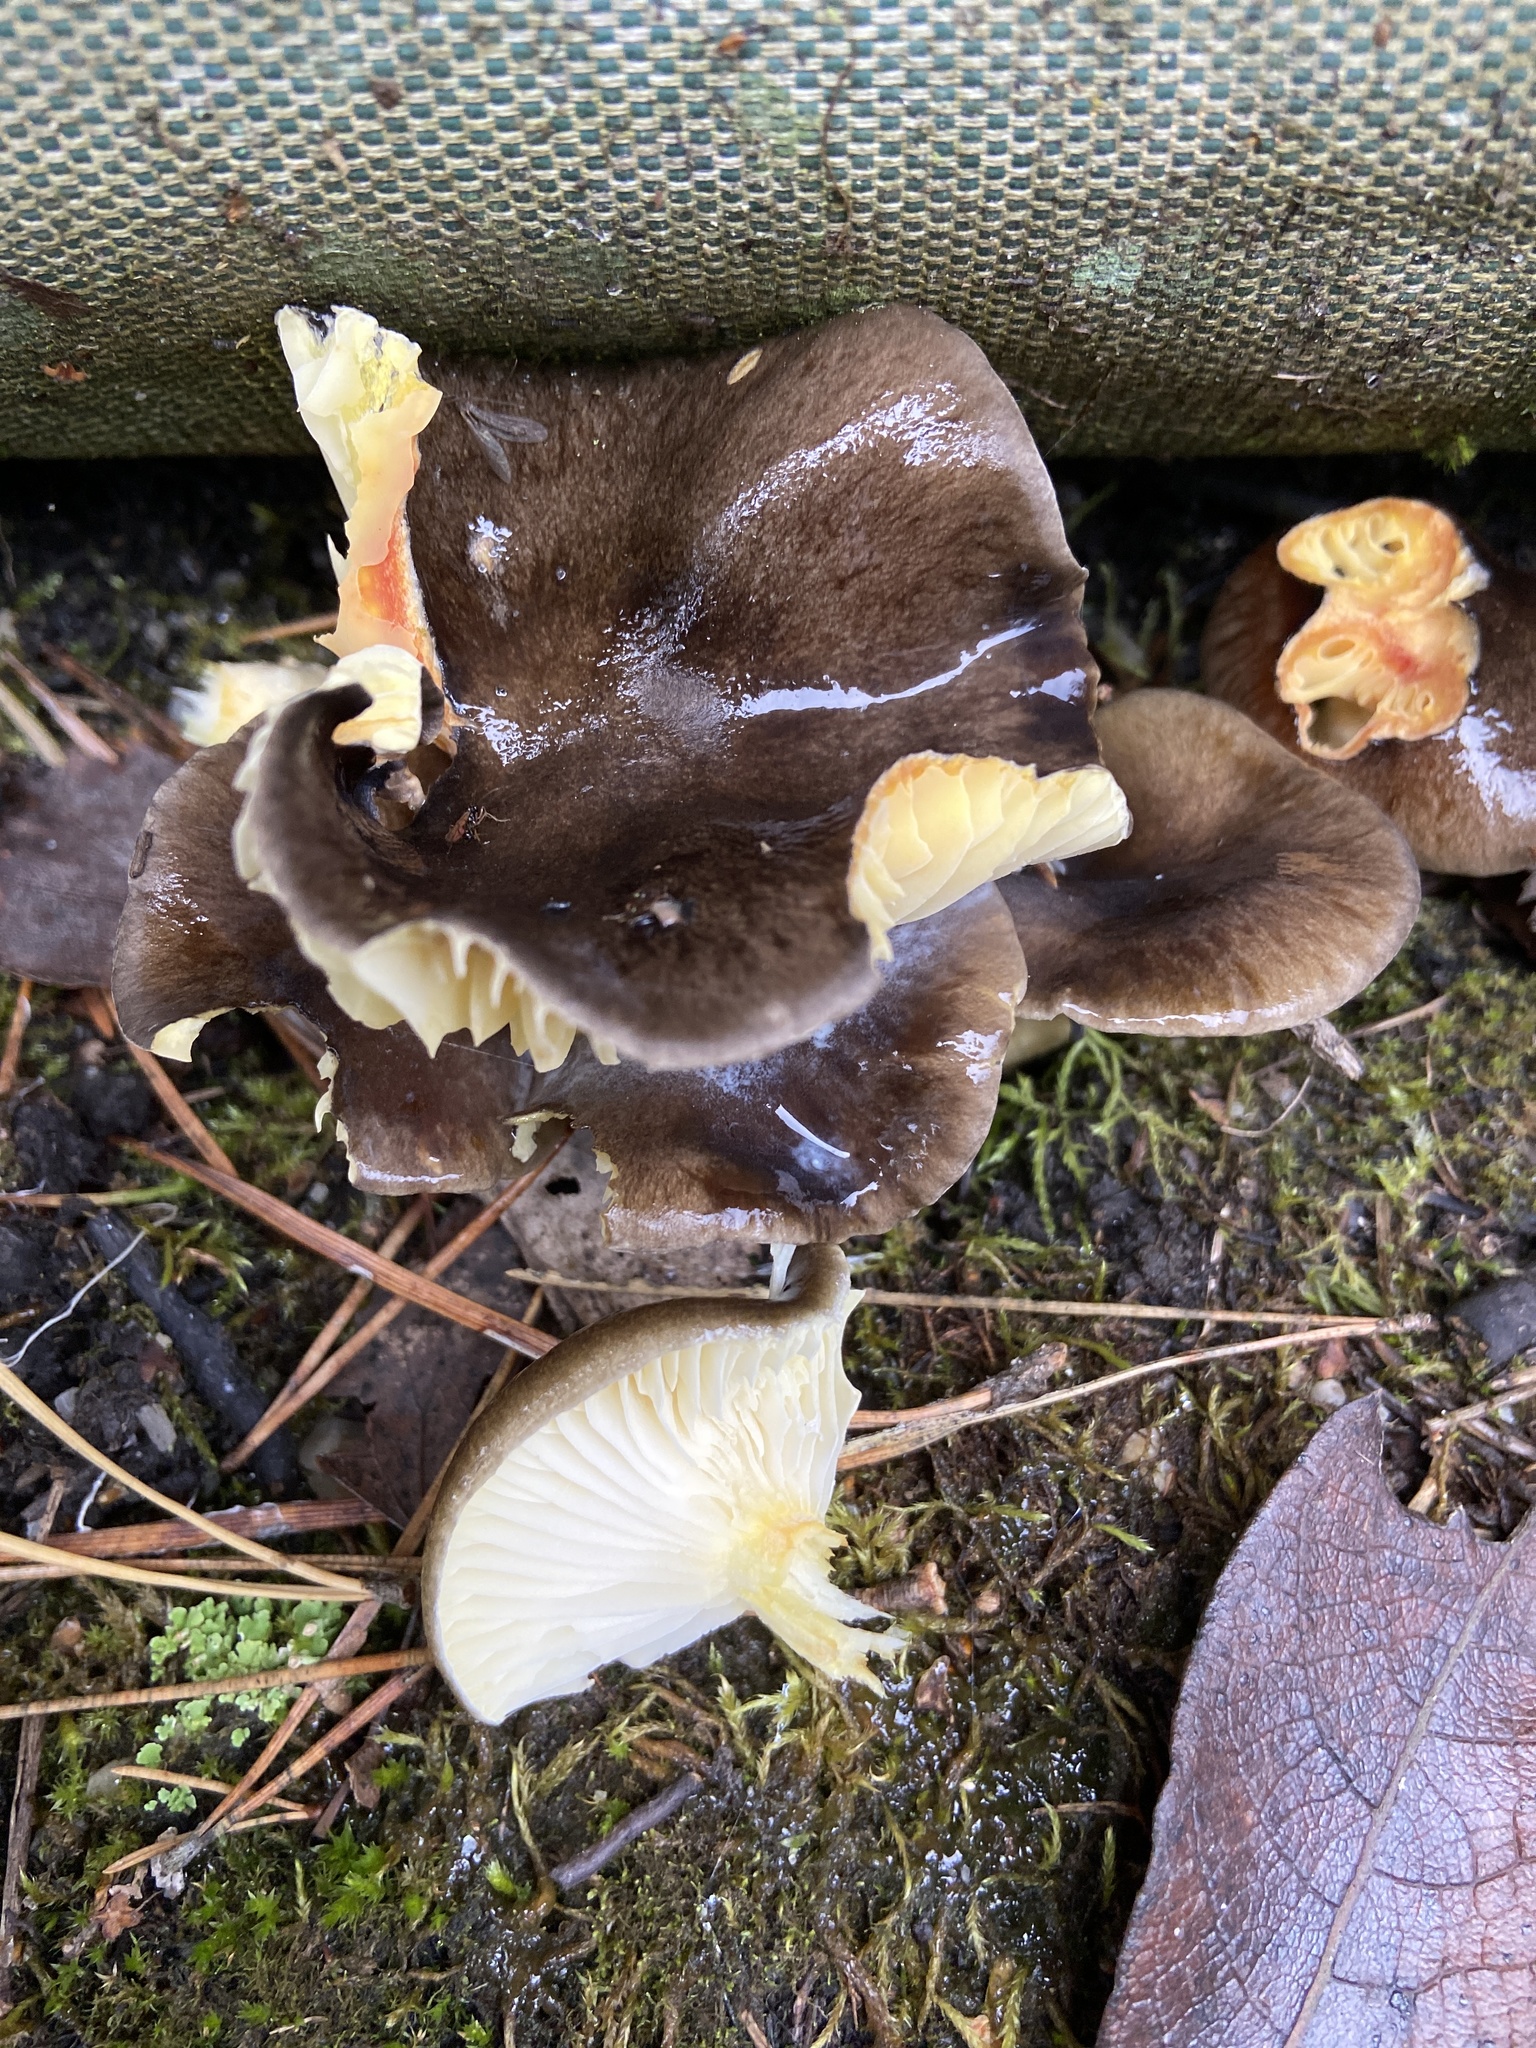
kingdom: Fungi
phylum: Basidiomycota
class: Agaricomycetes
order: Agaricales
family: Hygrophoraceae
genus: Hygrophorus
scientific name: Hygrophorus hypothejus
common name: Herald of winter
